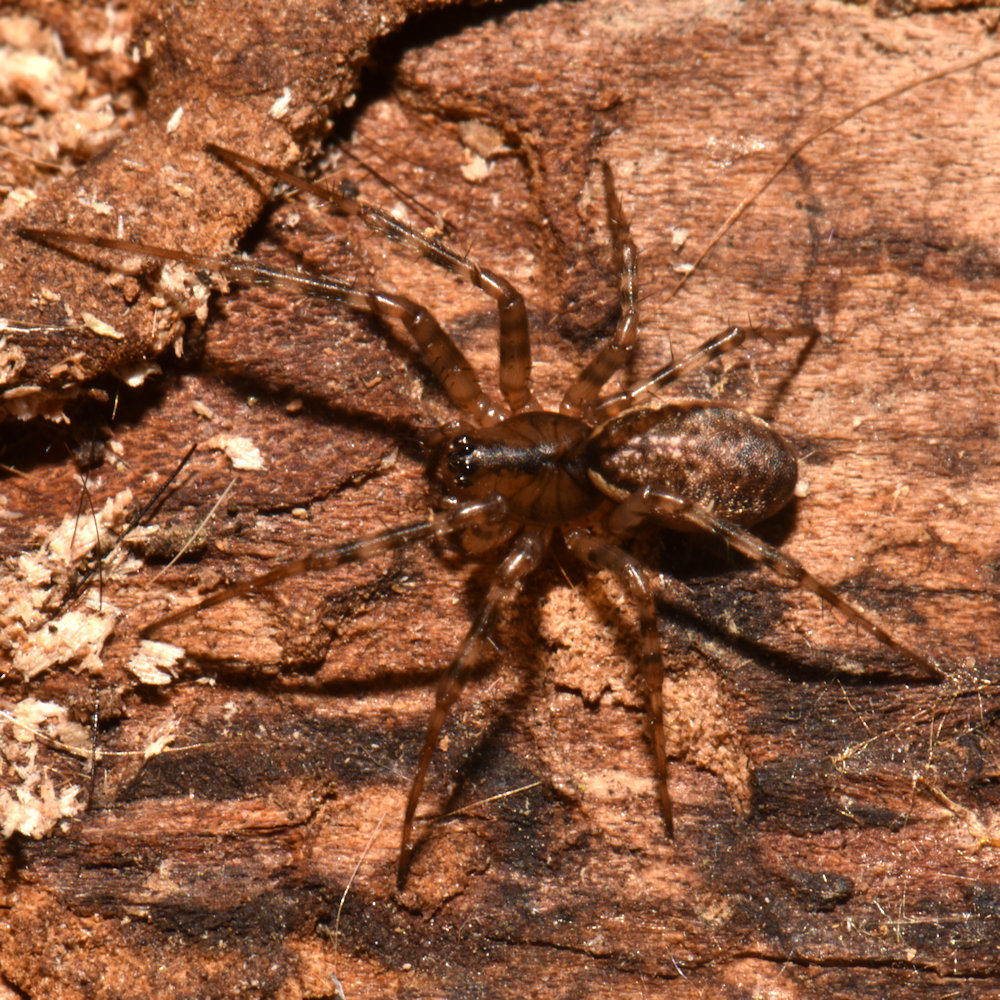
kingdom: Animalia
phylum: Arthropoda
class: Arachnida
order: Araneae
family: Linyphiidae
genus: Neriene
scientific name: Neriene montana
